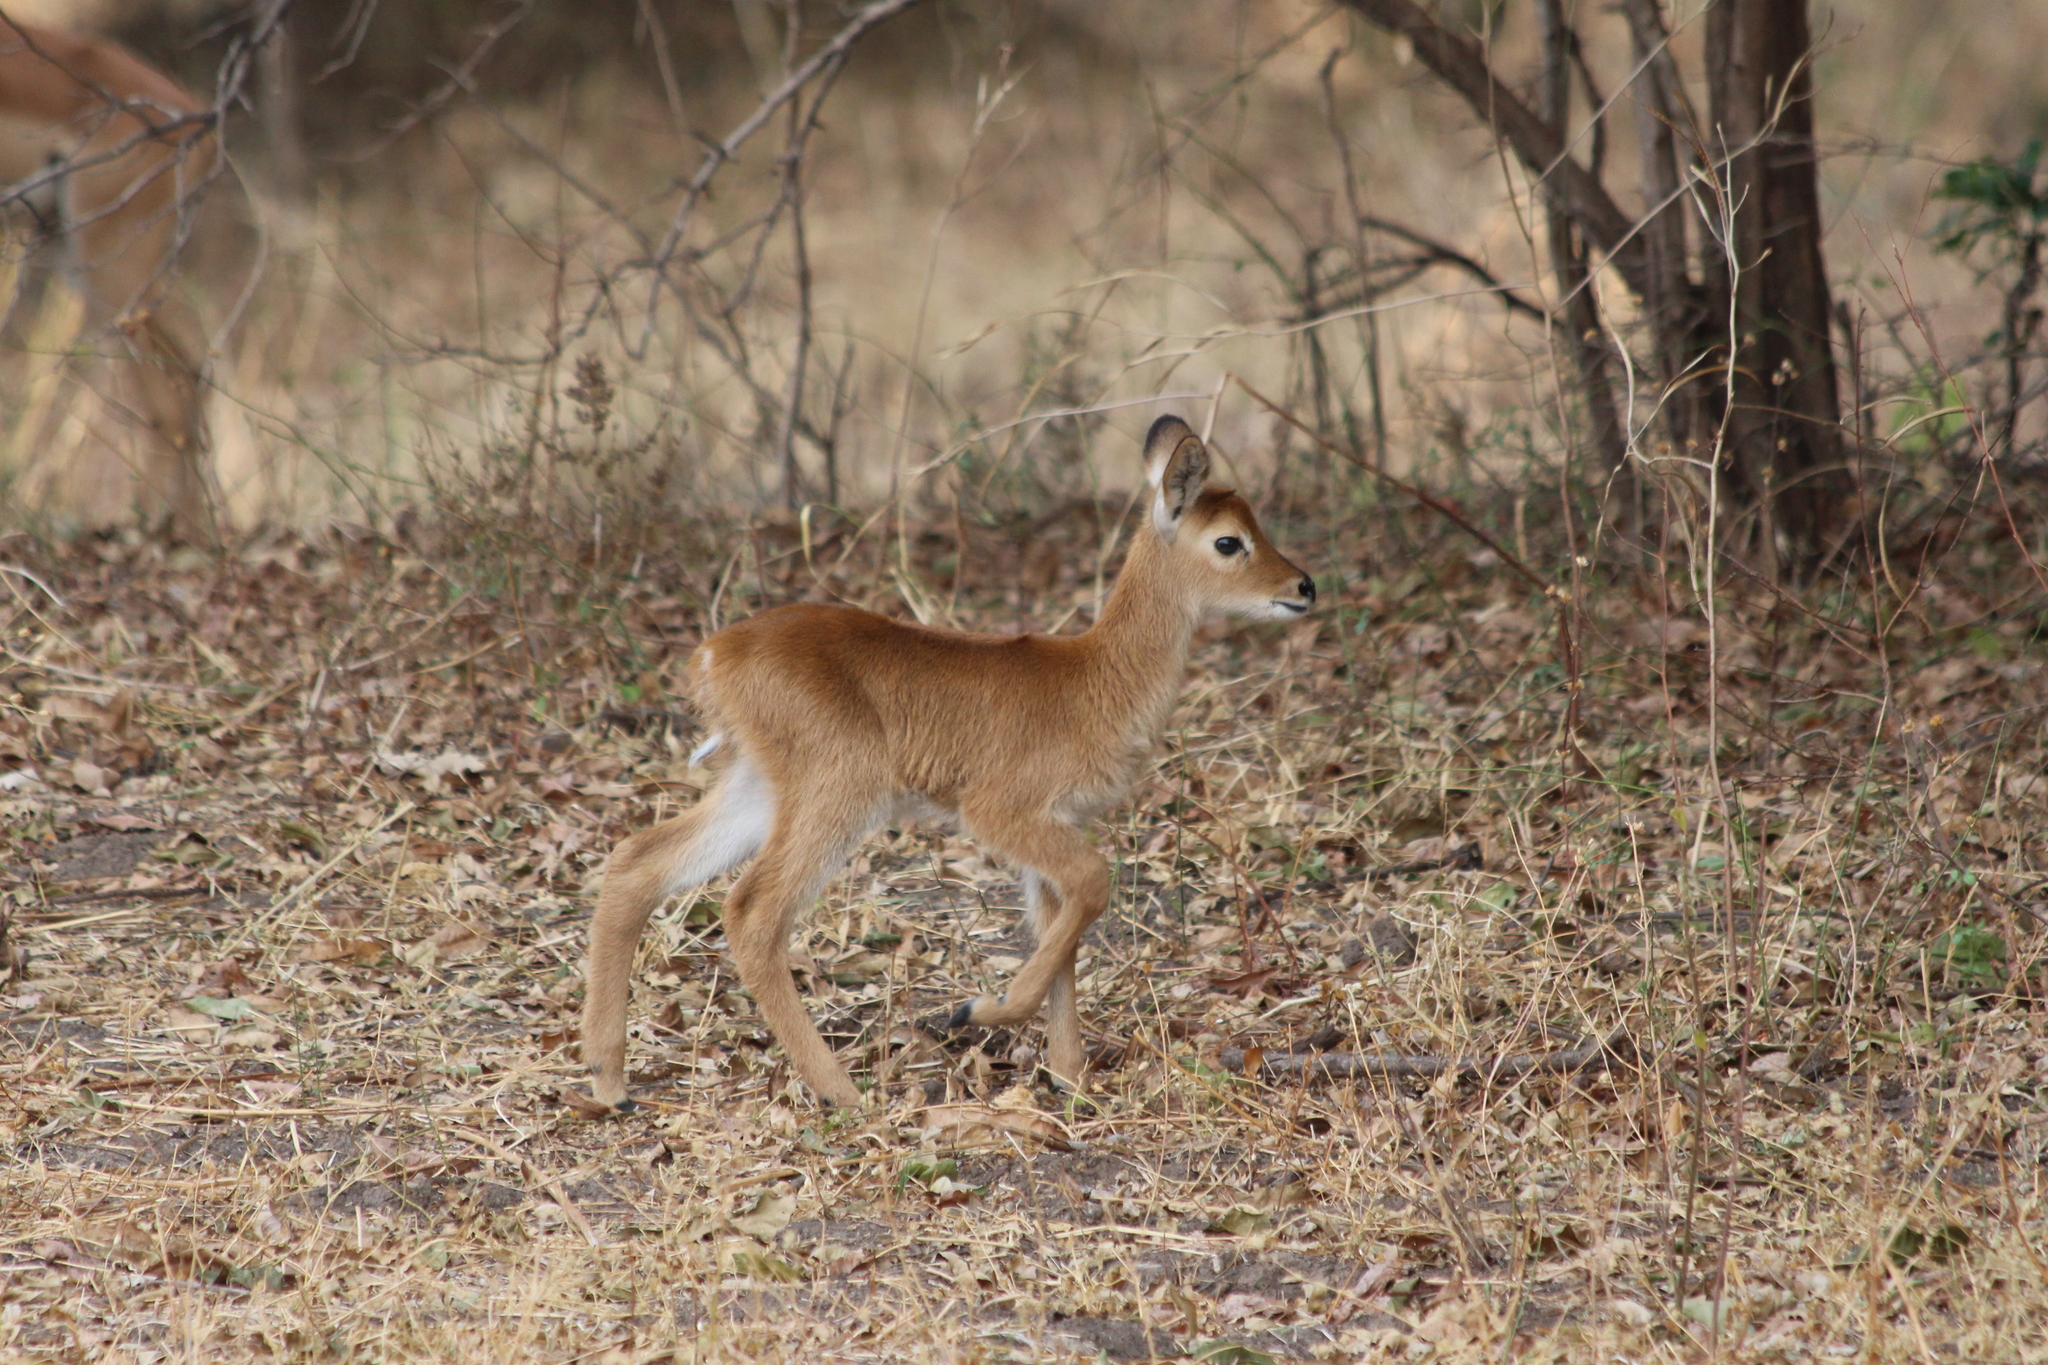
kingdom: Animalia
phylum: Chordata
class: Mammalia
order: Artiodactyla
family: Bovidae
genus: Kobus
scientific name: Kobus vardonii
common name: Puku
